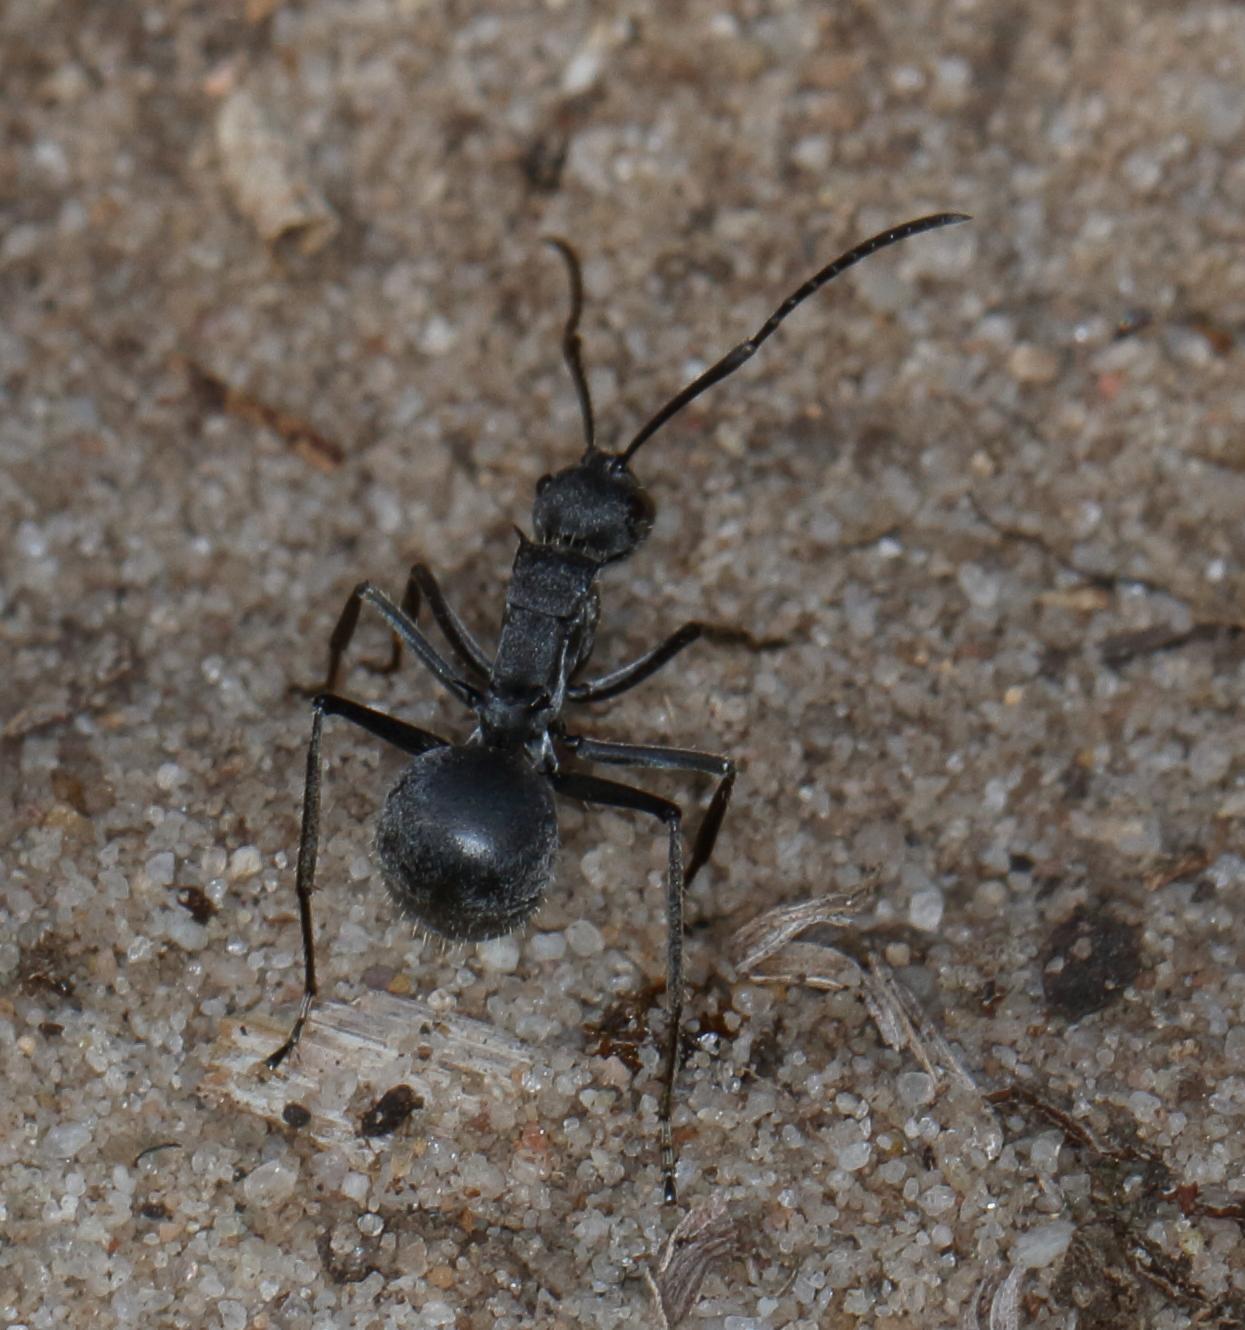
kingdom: Animalia
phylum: Arthropoda
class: Insecta
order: Hymenoptera
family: Formicidae
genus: Polyrhachis
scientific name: Polyrhachis schistacea
